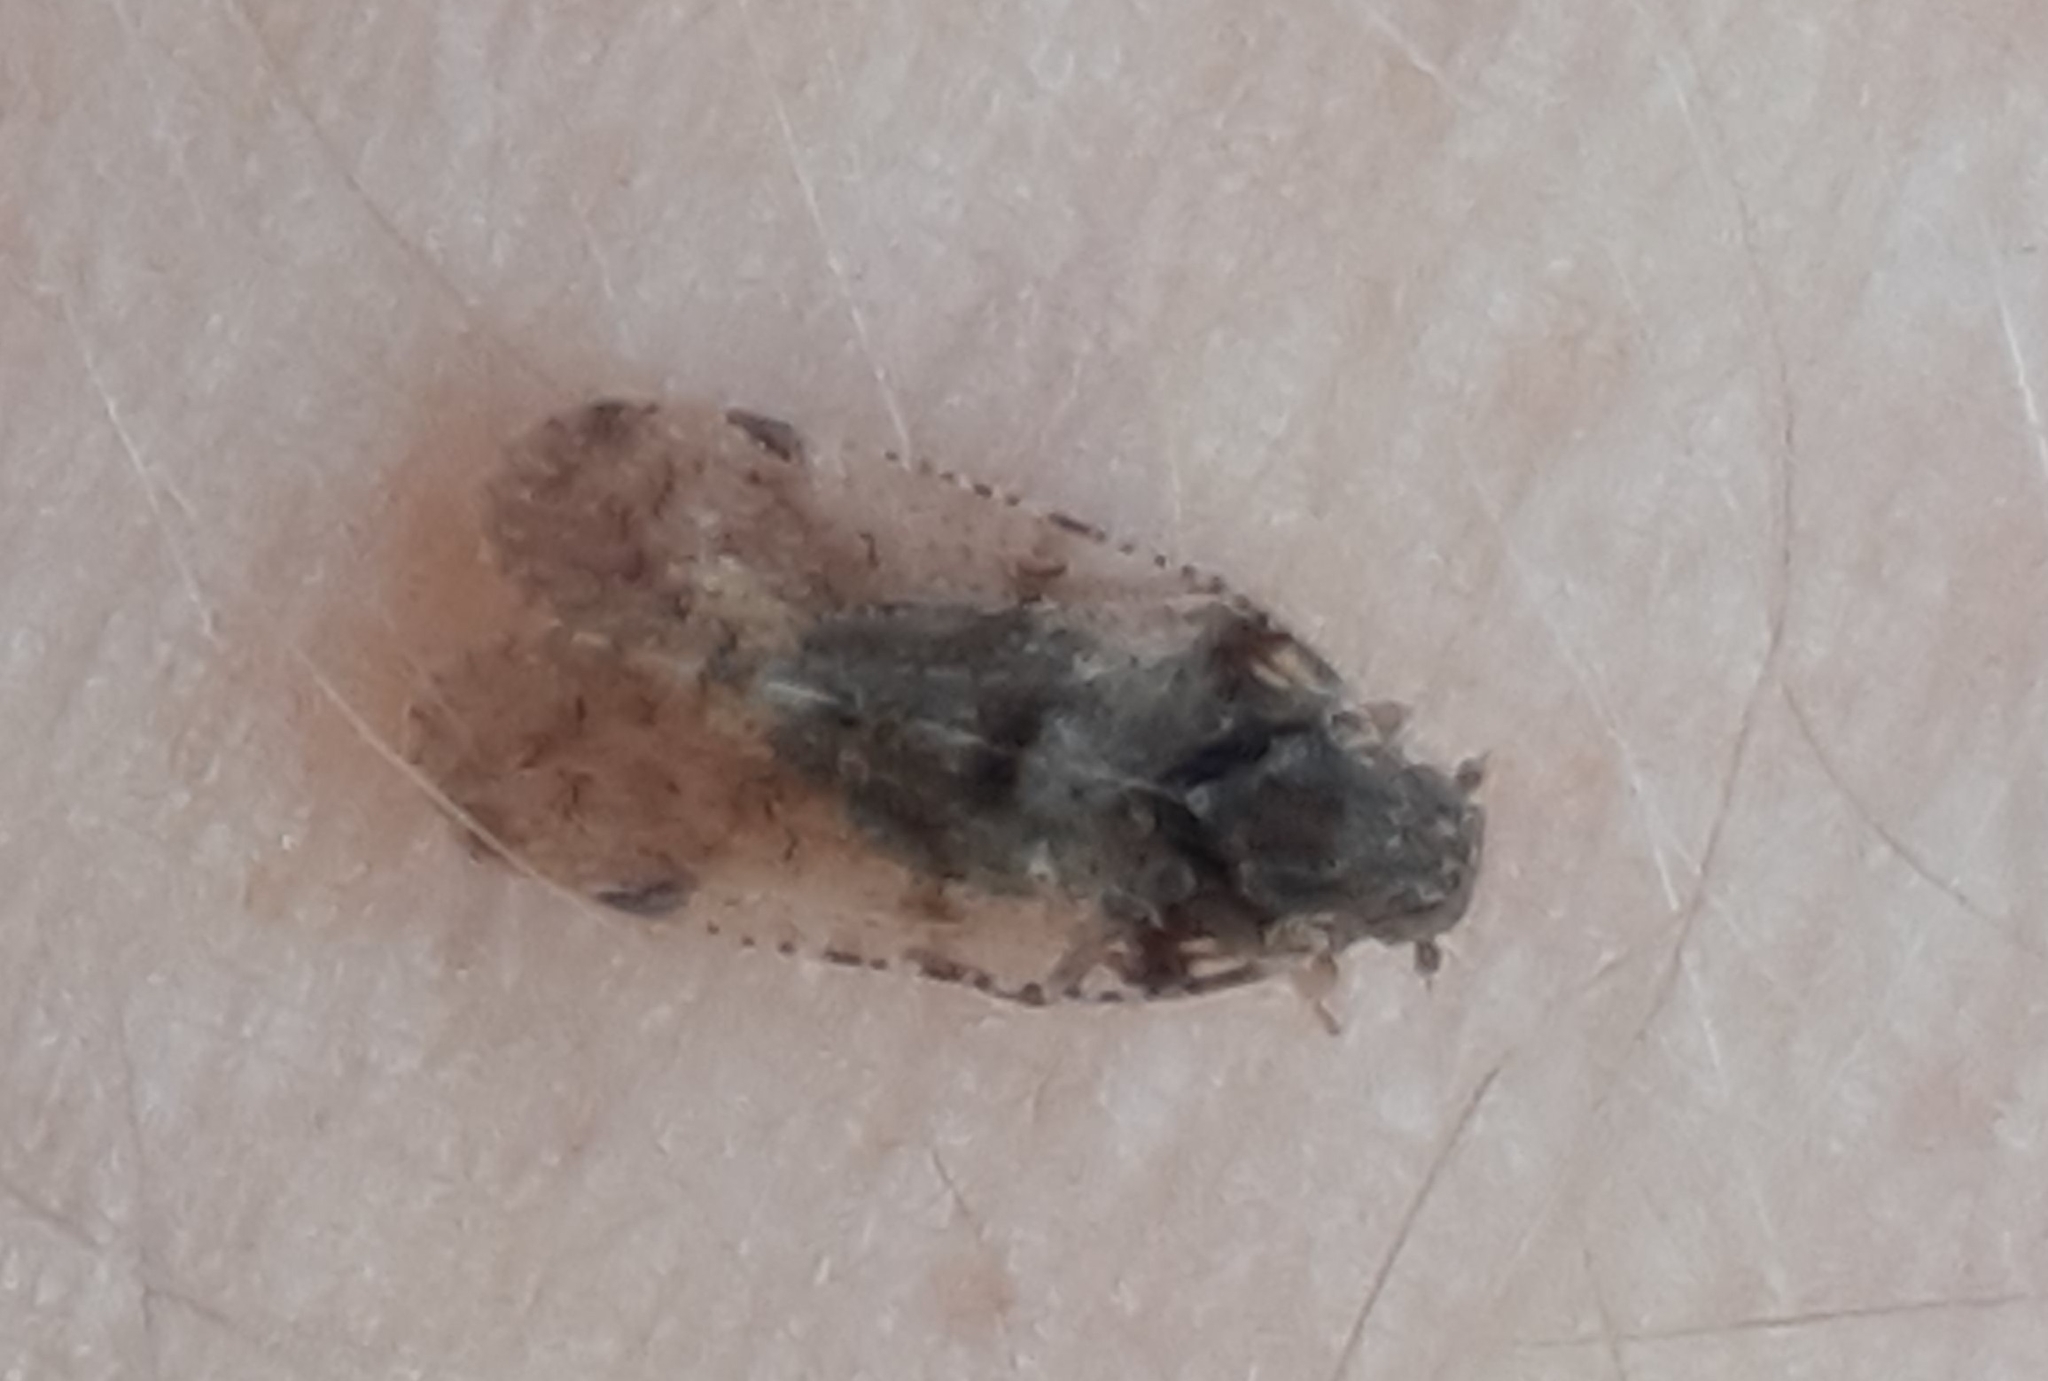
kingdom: Animalia
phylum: Arthropoda
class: Insecta
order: Hemiptera
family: Cixiidae
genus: Cixius
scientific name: Cixius nervosus
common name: Common lacehopper
